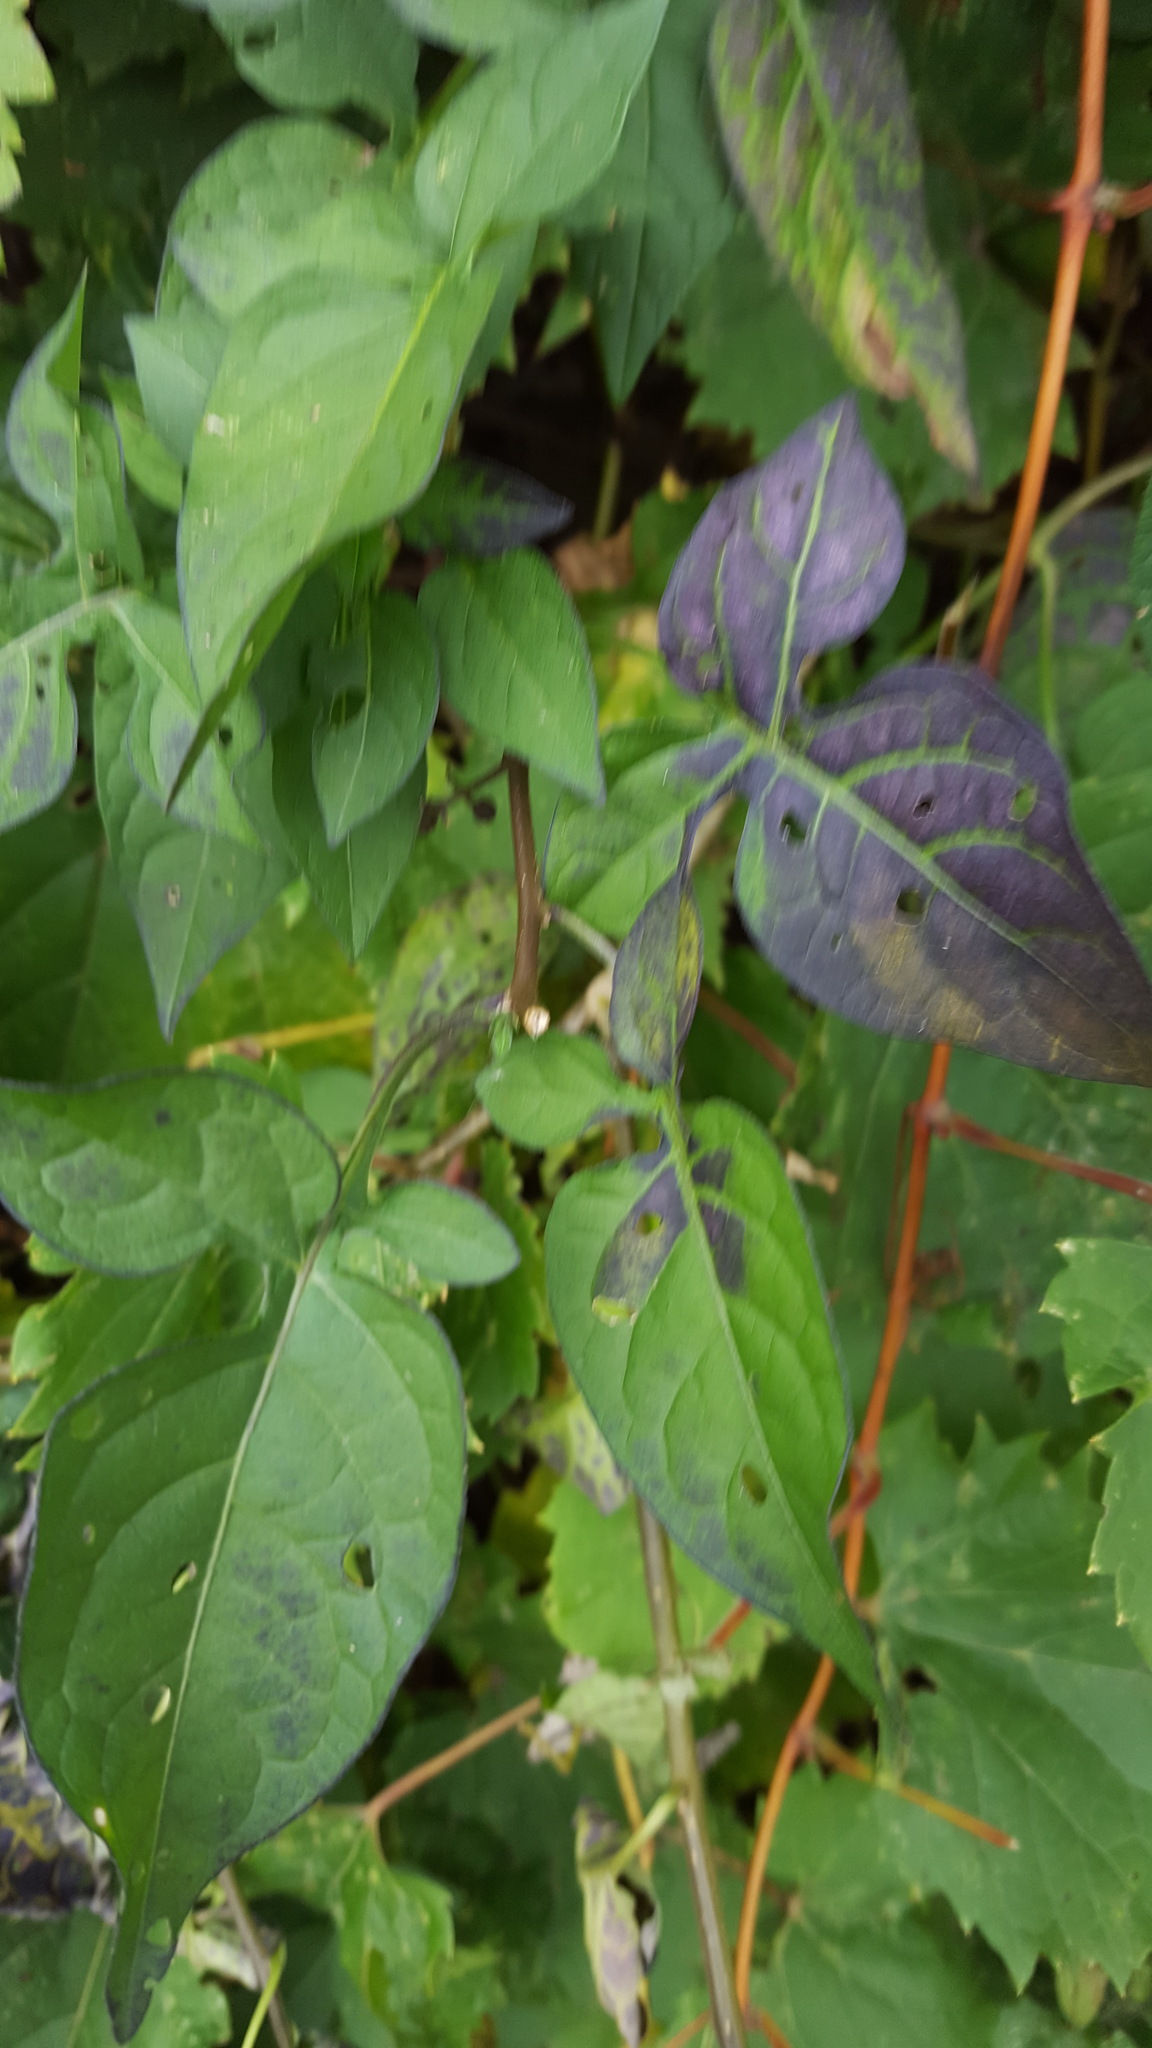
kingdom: Plantae
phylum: Tracheophyta
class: Magnoliopsida
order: Solanales
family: Solanaceae
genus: Solanum
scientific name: Solanum dulcamara
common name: Climbing nightshade
